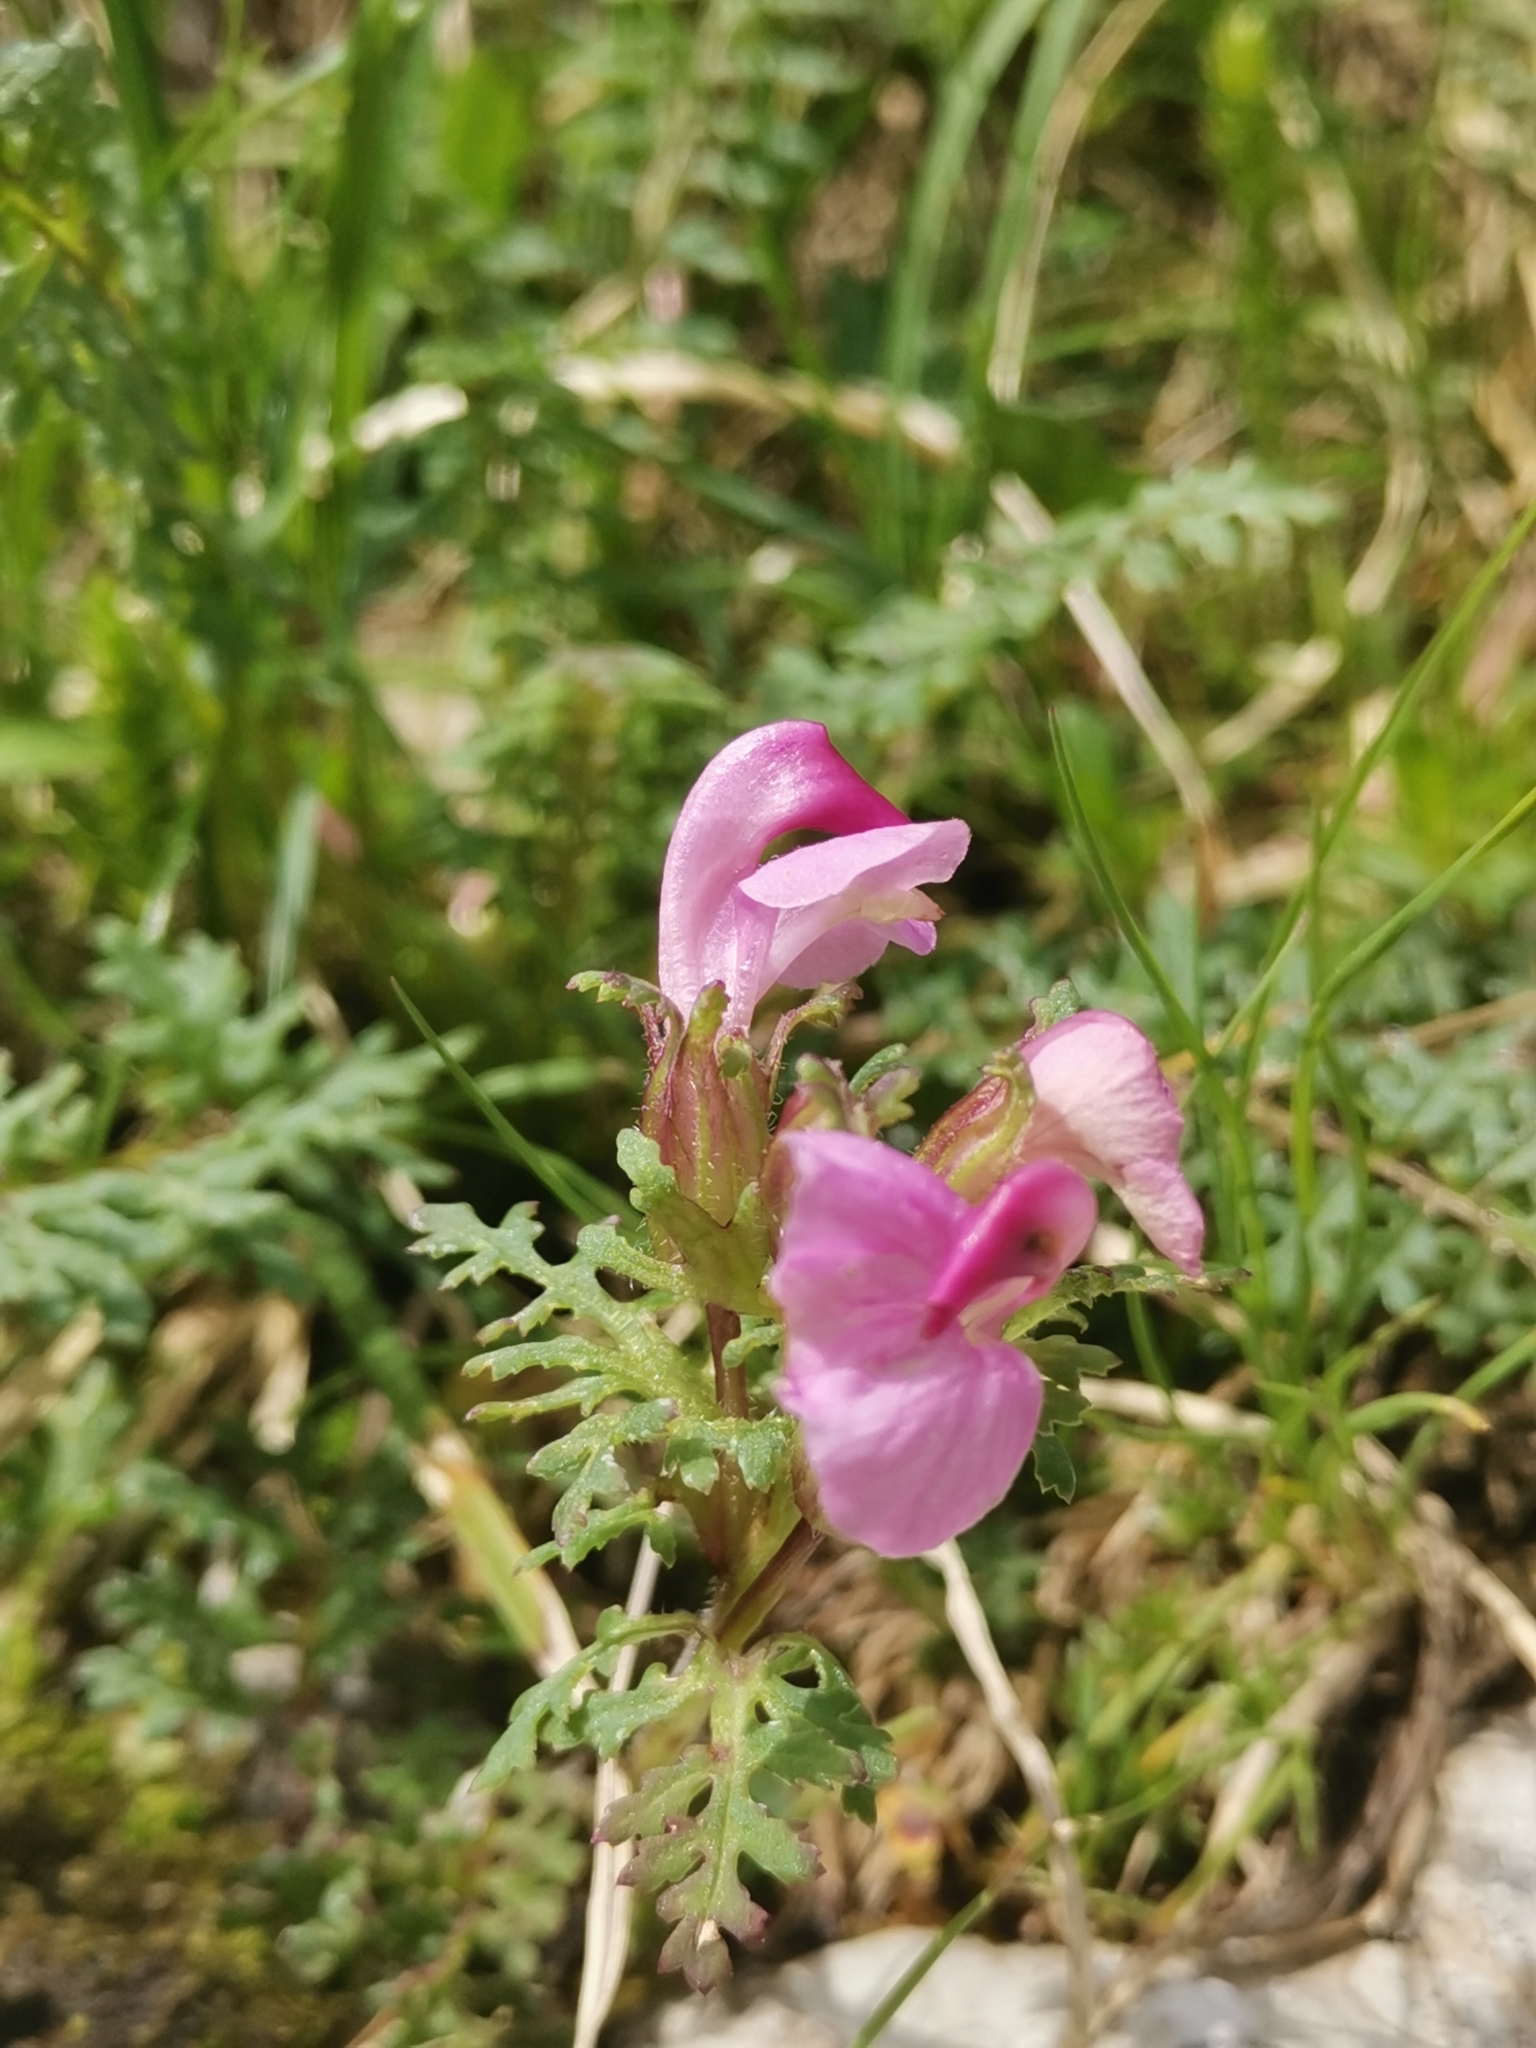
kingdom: Plantae
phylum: Tracheophyta
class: Magnoliopsida
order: Lamiales
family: Orobanchaceae
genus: Pedicularis
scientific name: Pedicularis rostratocapitata
